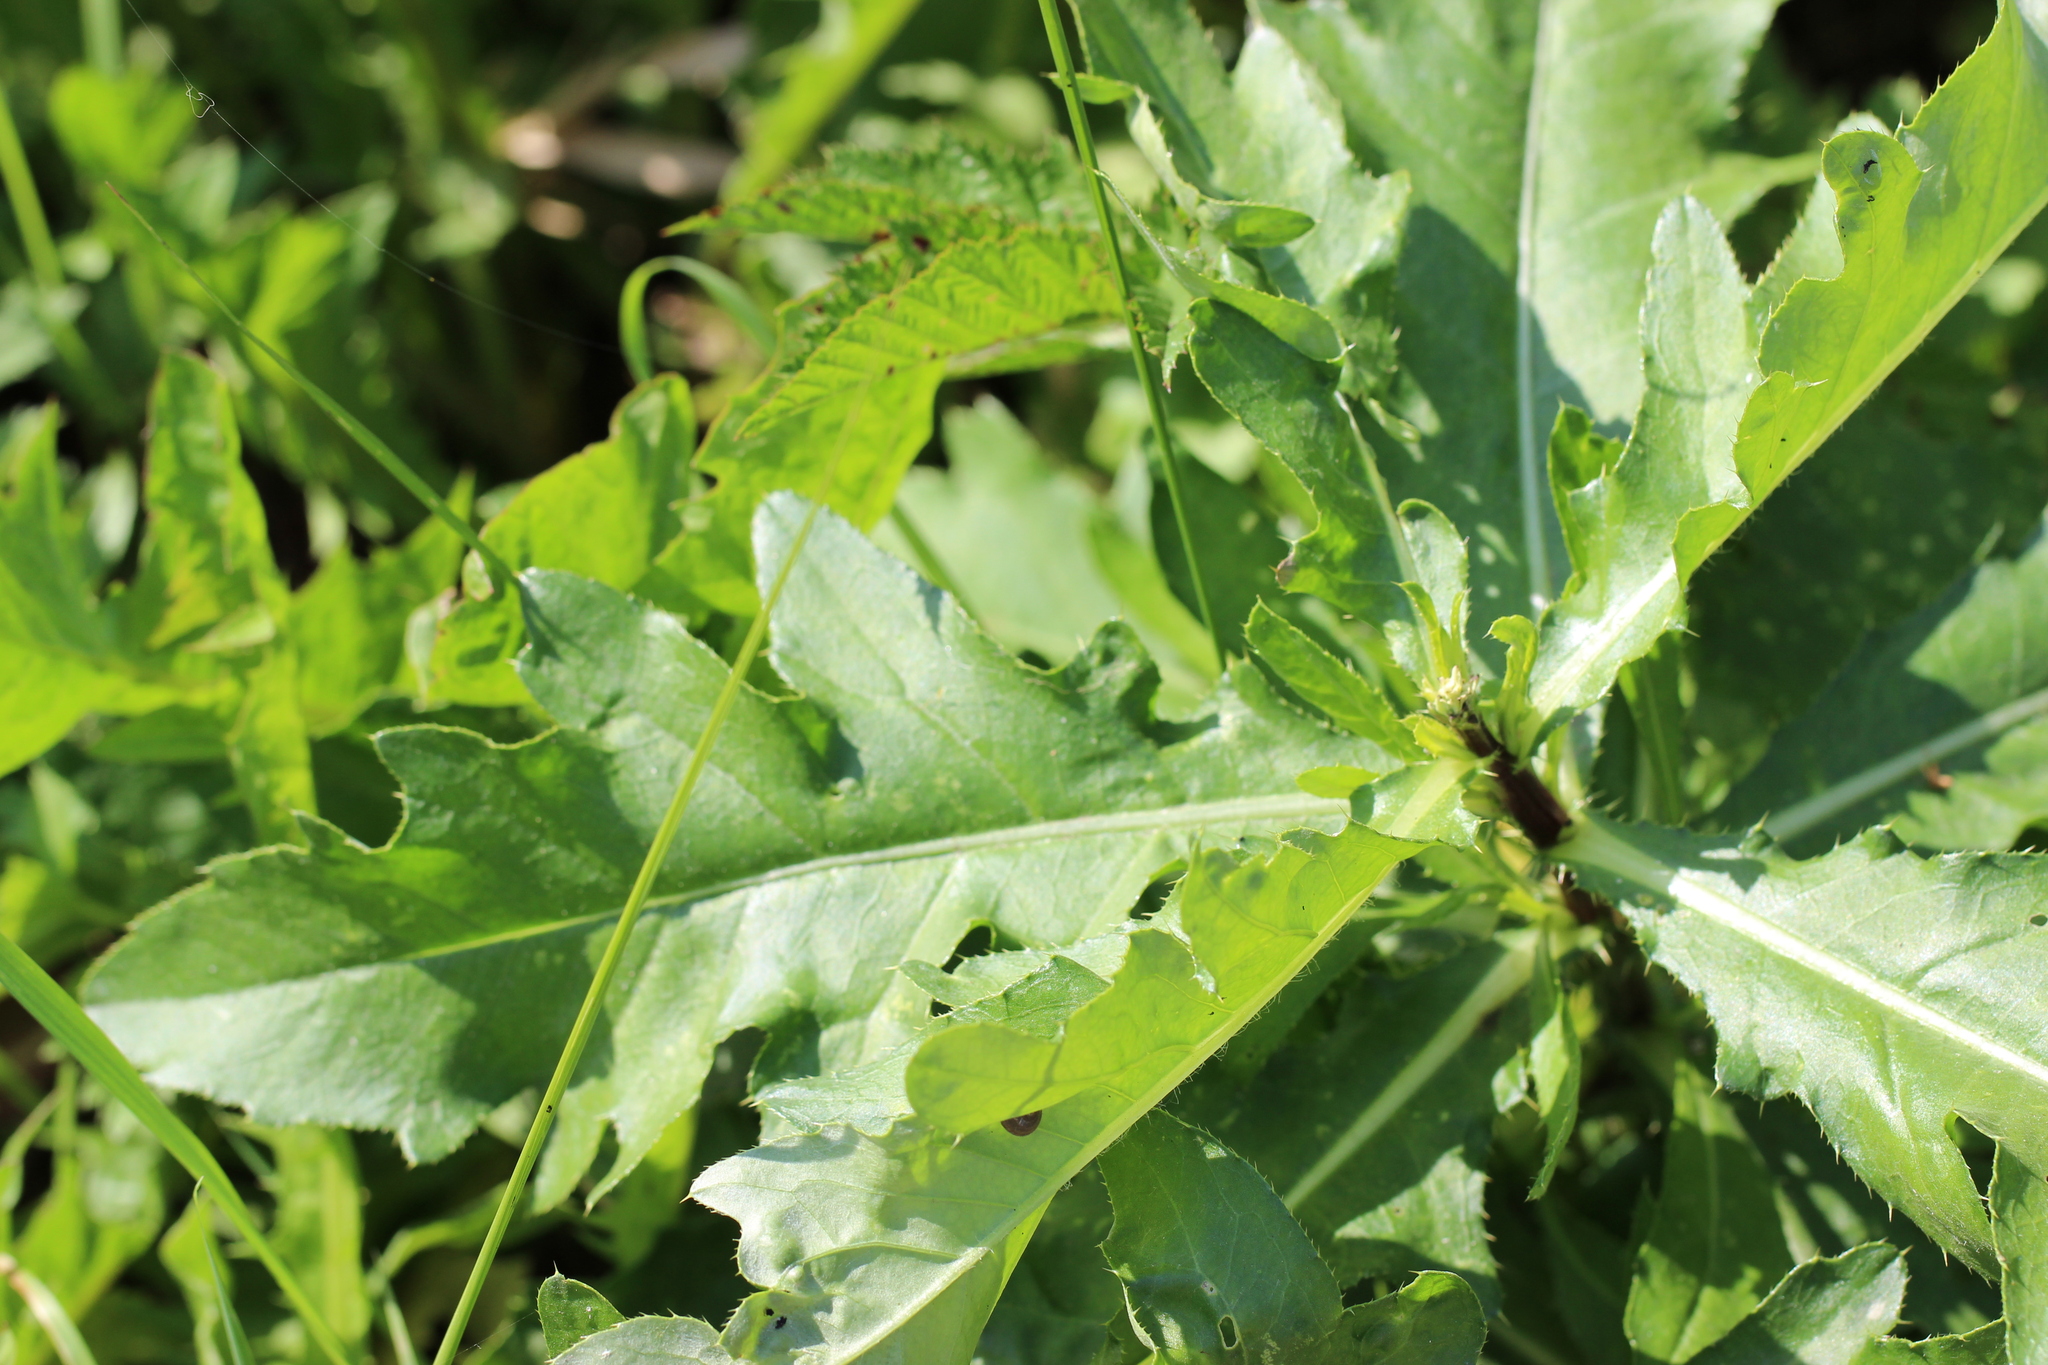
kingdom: Plantae
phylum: Tracheophyta
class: Magnoliopsida
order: Asterales
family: Asteraceae
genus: Cirsium
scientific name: Cirsium arvense
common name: Creeping thistle
